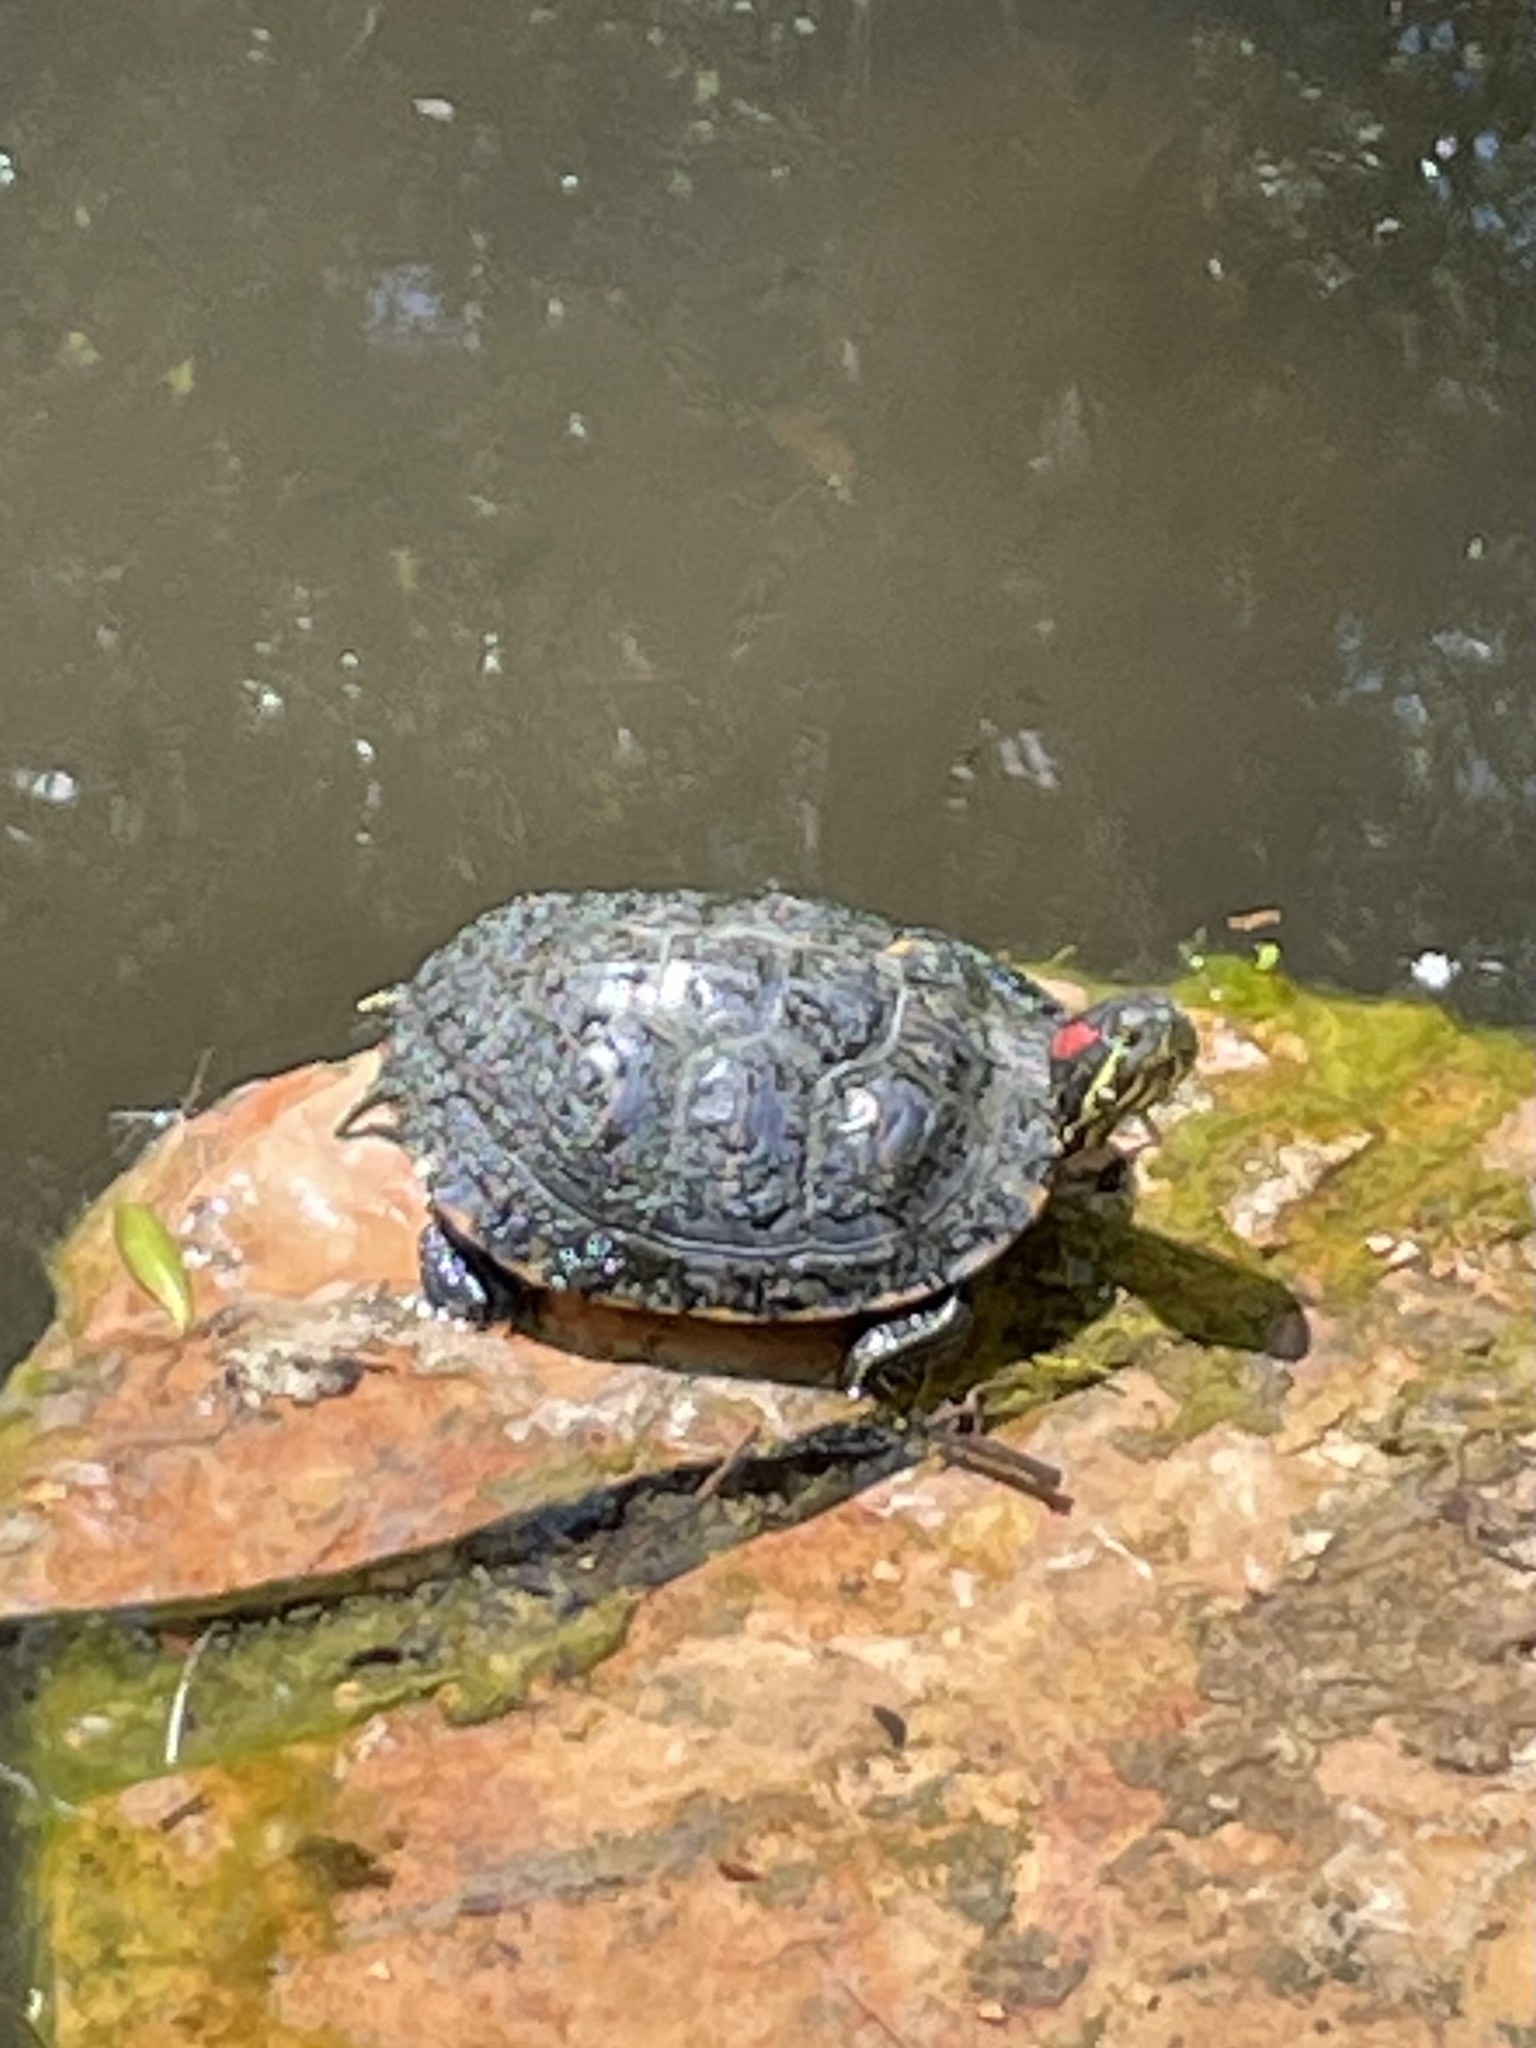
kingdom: Animalia
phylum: Chordata
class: Testudines
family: Emydidae
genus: Trachemys
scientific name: Trachemys scripta
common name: Slider
